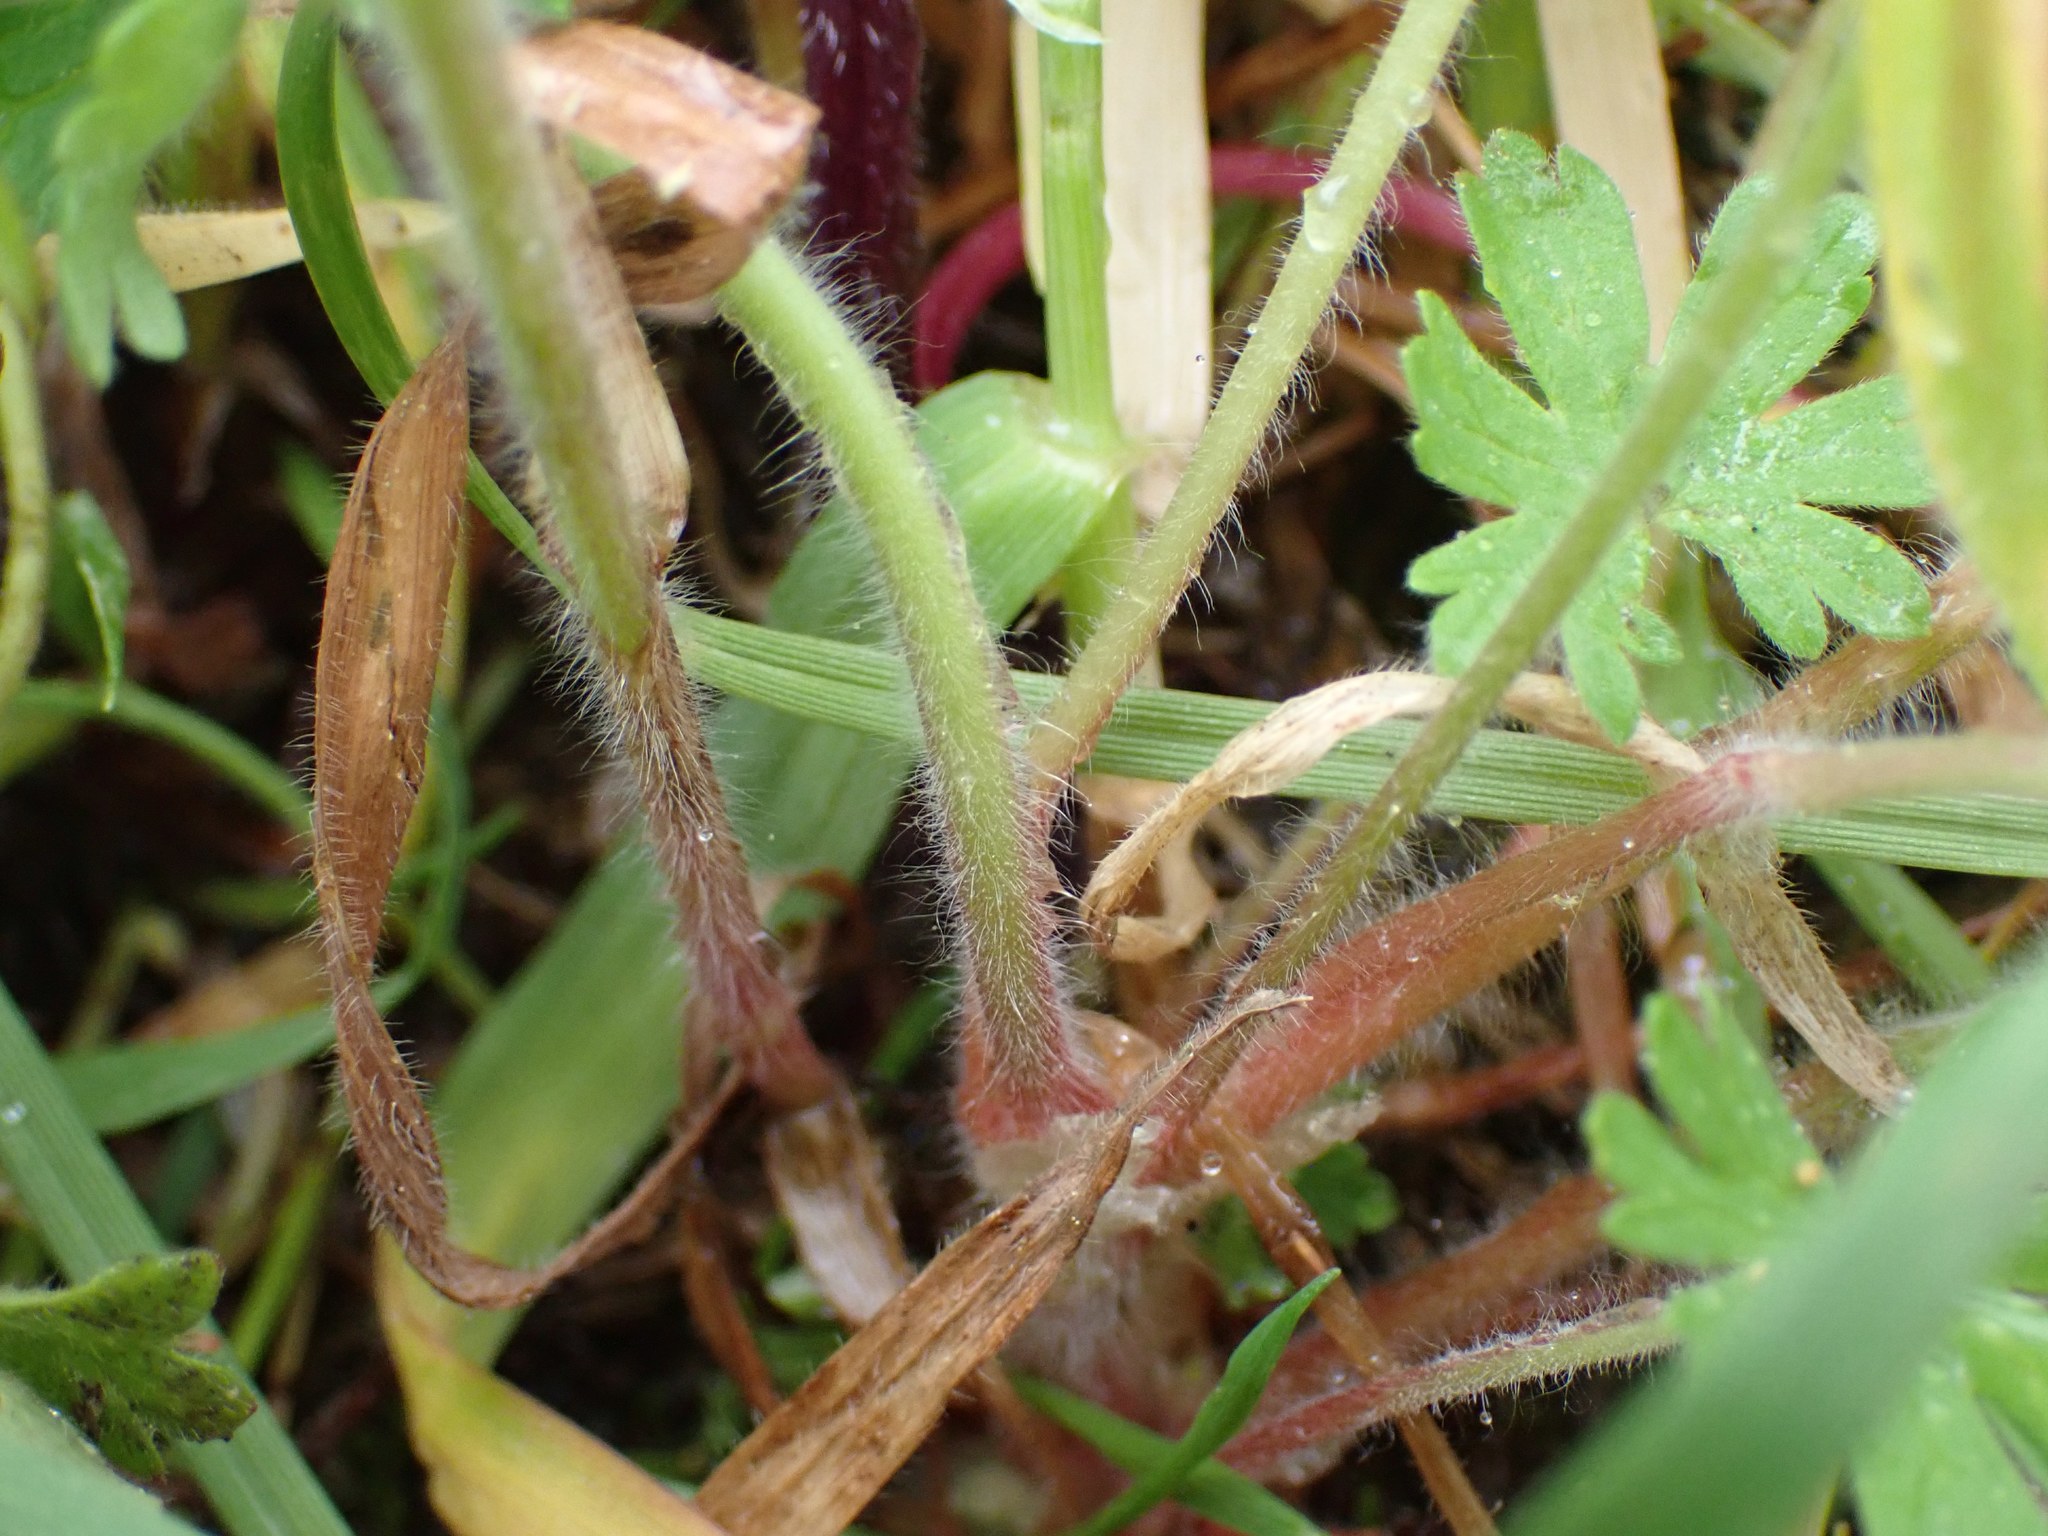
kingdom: Plantae
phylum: Tracheophyta
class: Magnoliopsida
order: Geraniales
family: Geraniaceae
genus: Geranium
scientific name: Geranium molle
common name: Dove's-foot crane's-bill
